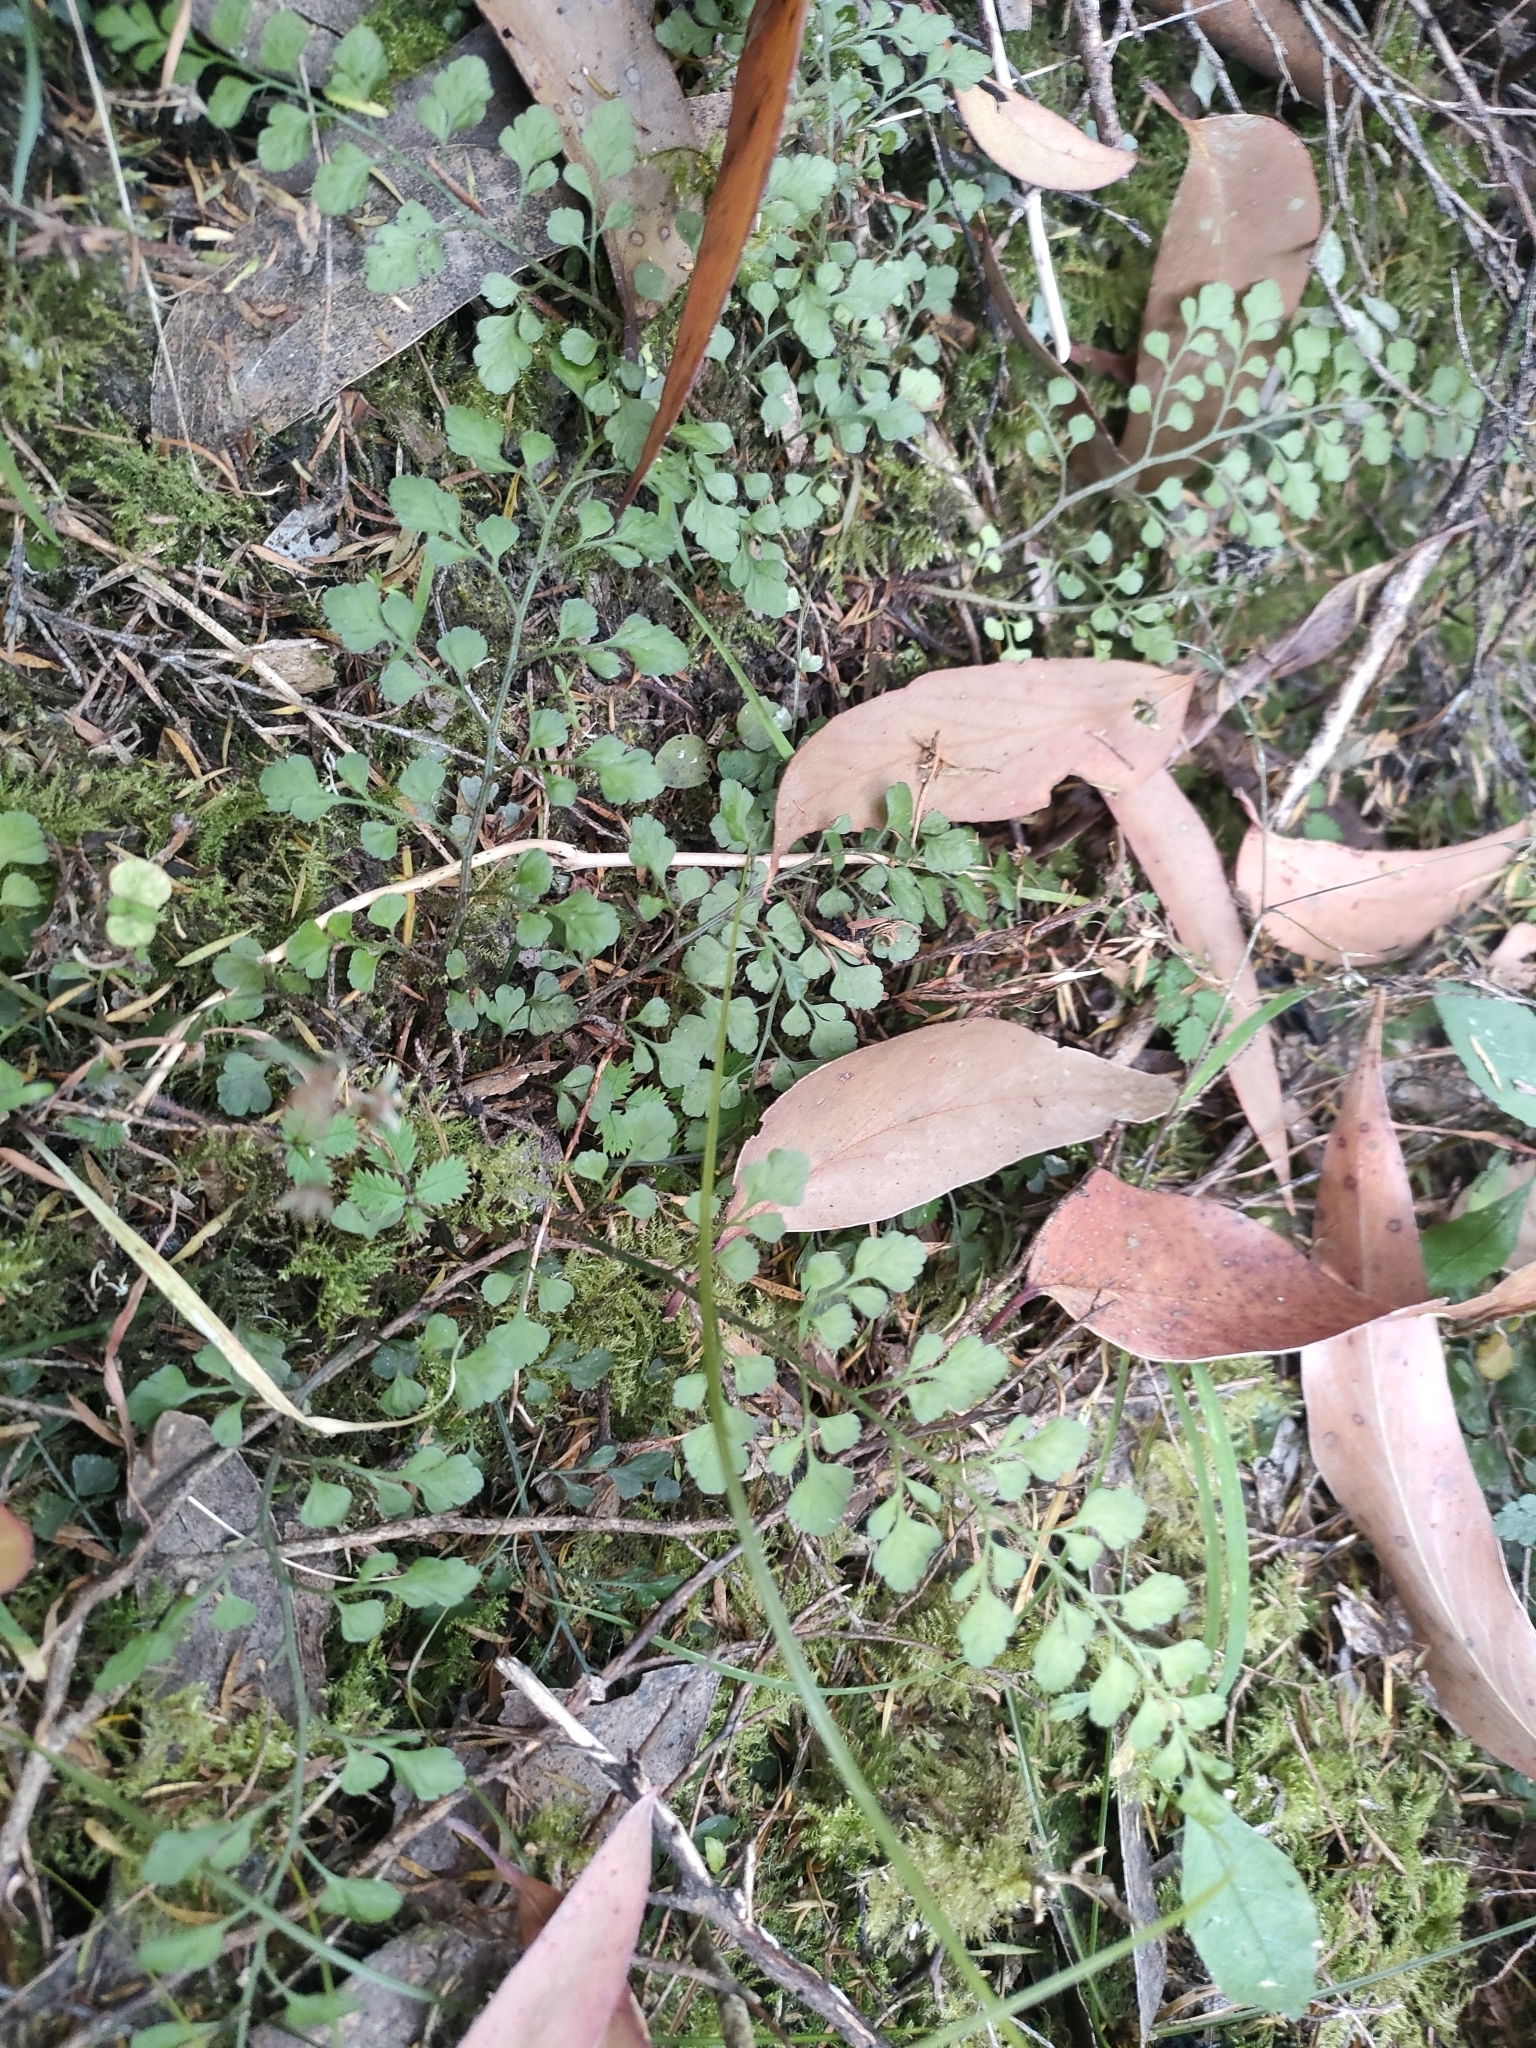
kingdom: Plantae
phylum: Tracheophyta
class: Polypodiopsida
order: Polypodiales
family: Aspleniaceae
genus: Asplenium
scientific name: Asplenium hookerianum
